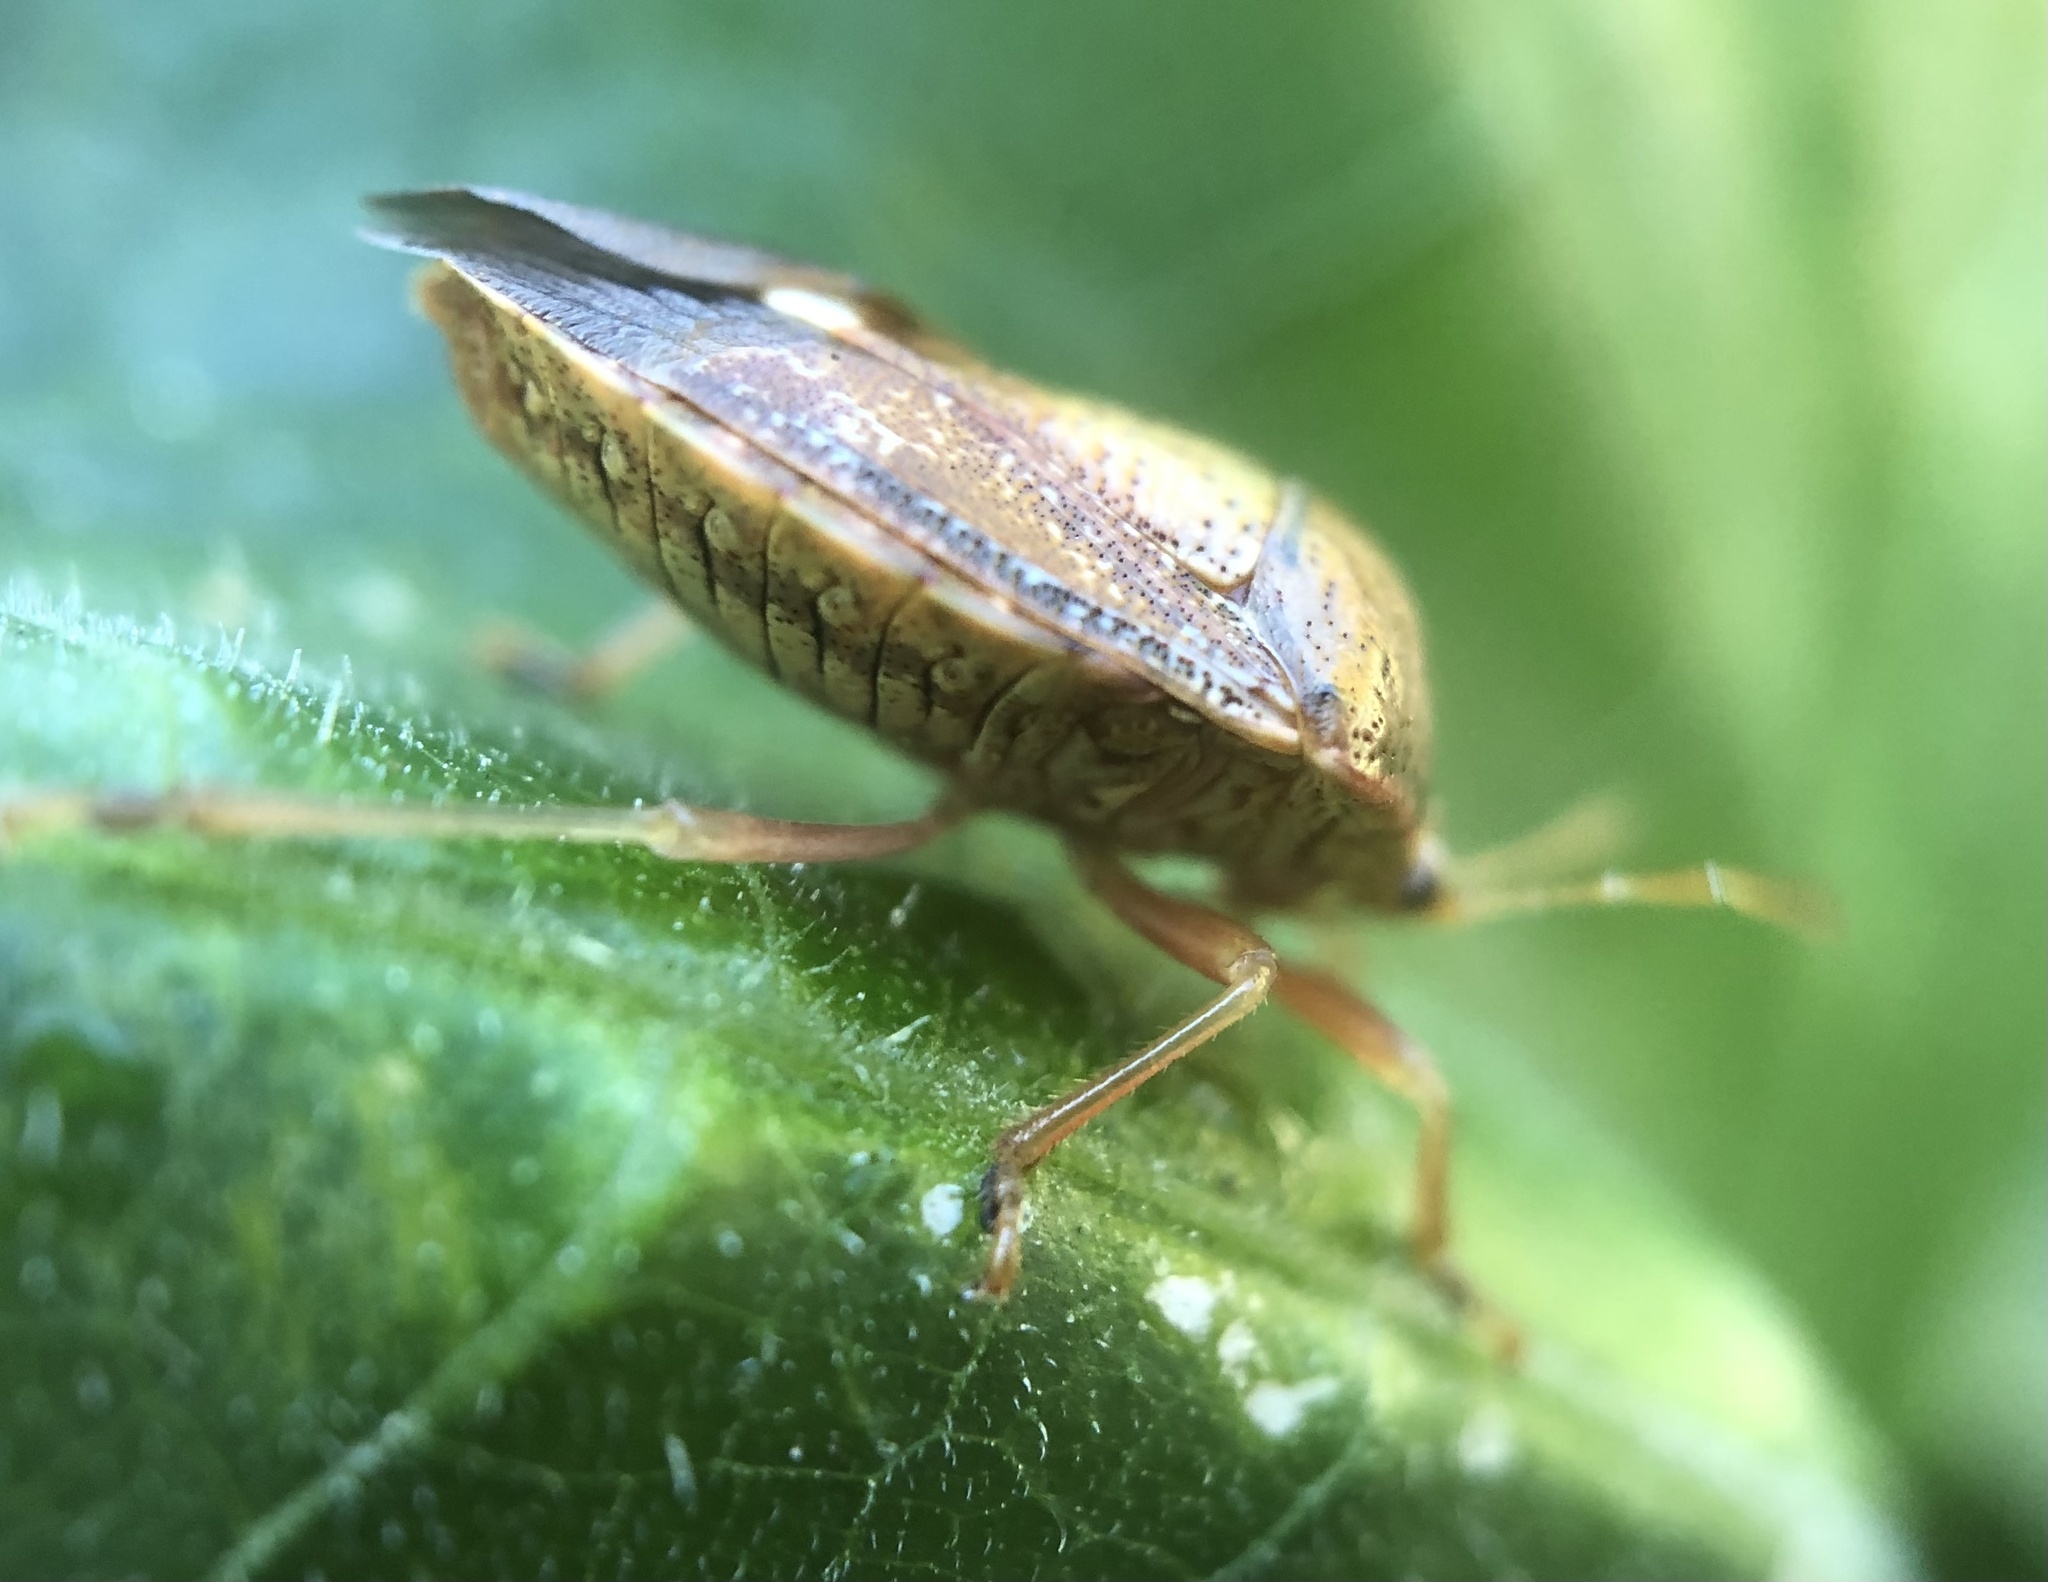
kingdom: Animalia
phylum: Arthropoda
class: Insecta
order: Hemiptera
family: Pentatomidae
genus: Edessa
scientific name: Edessa bifida
